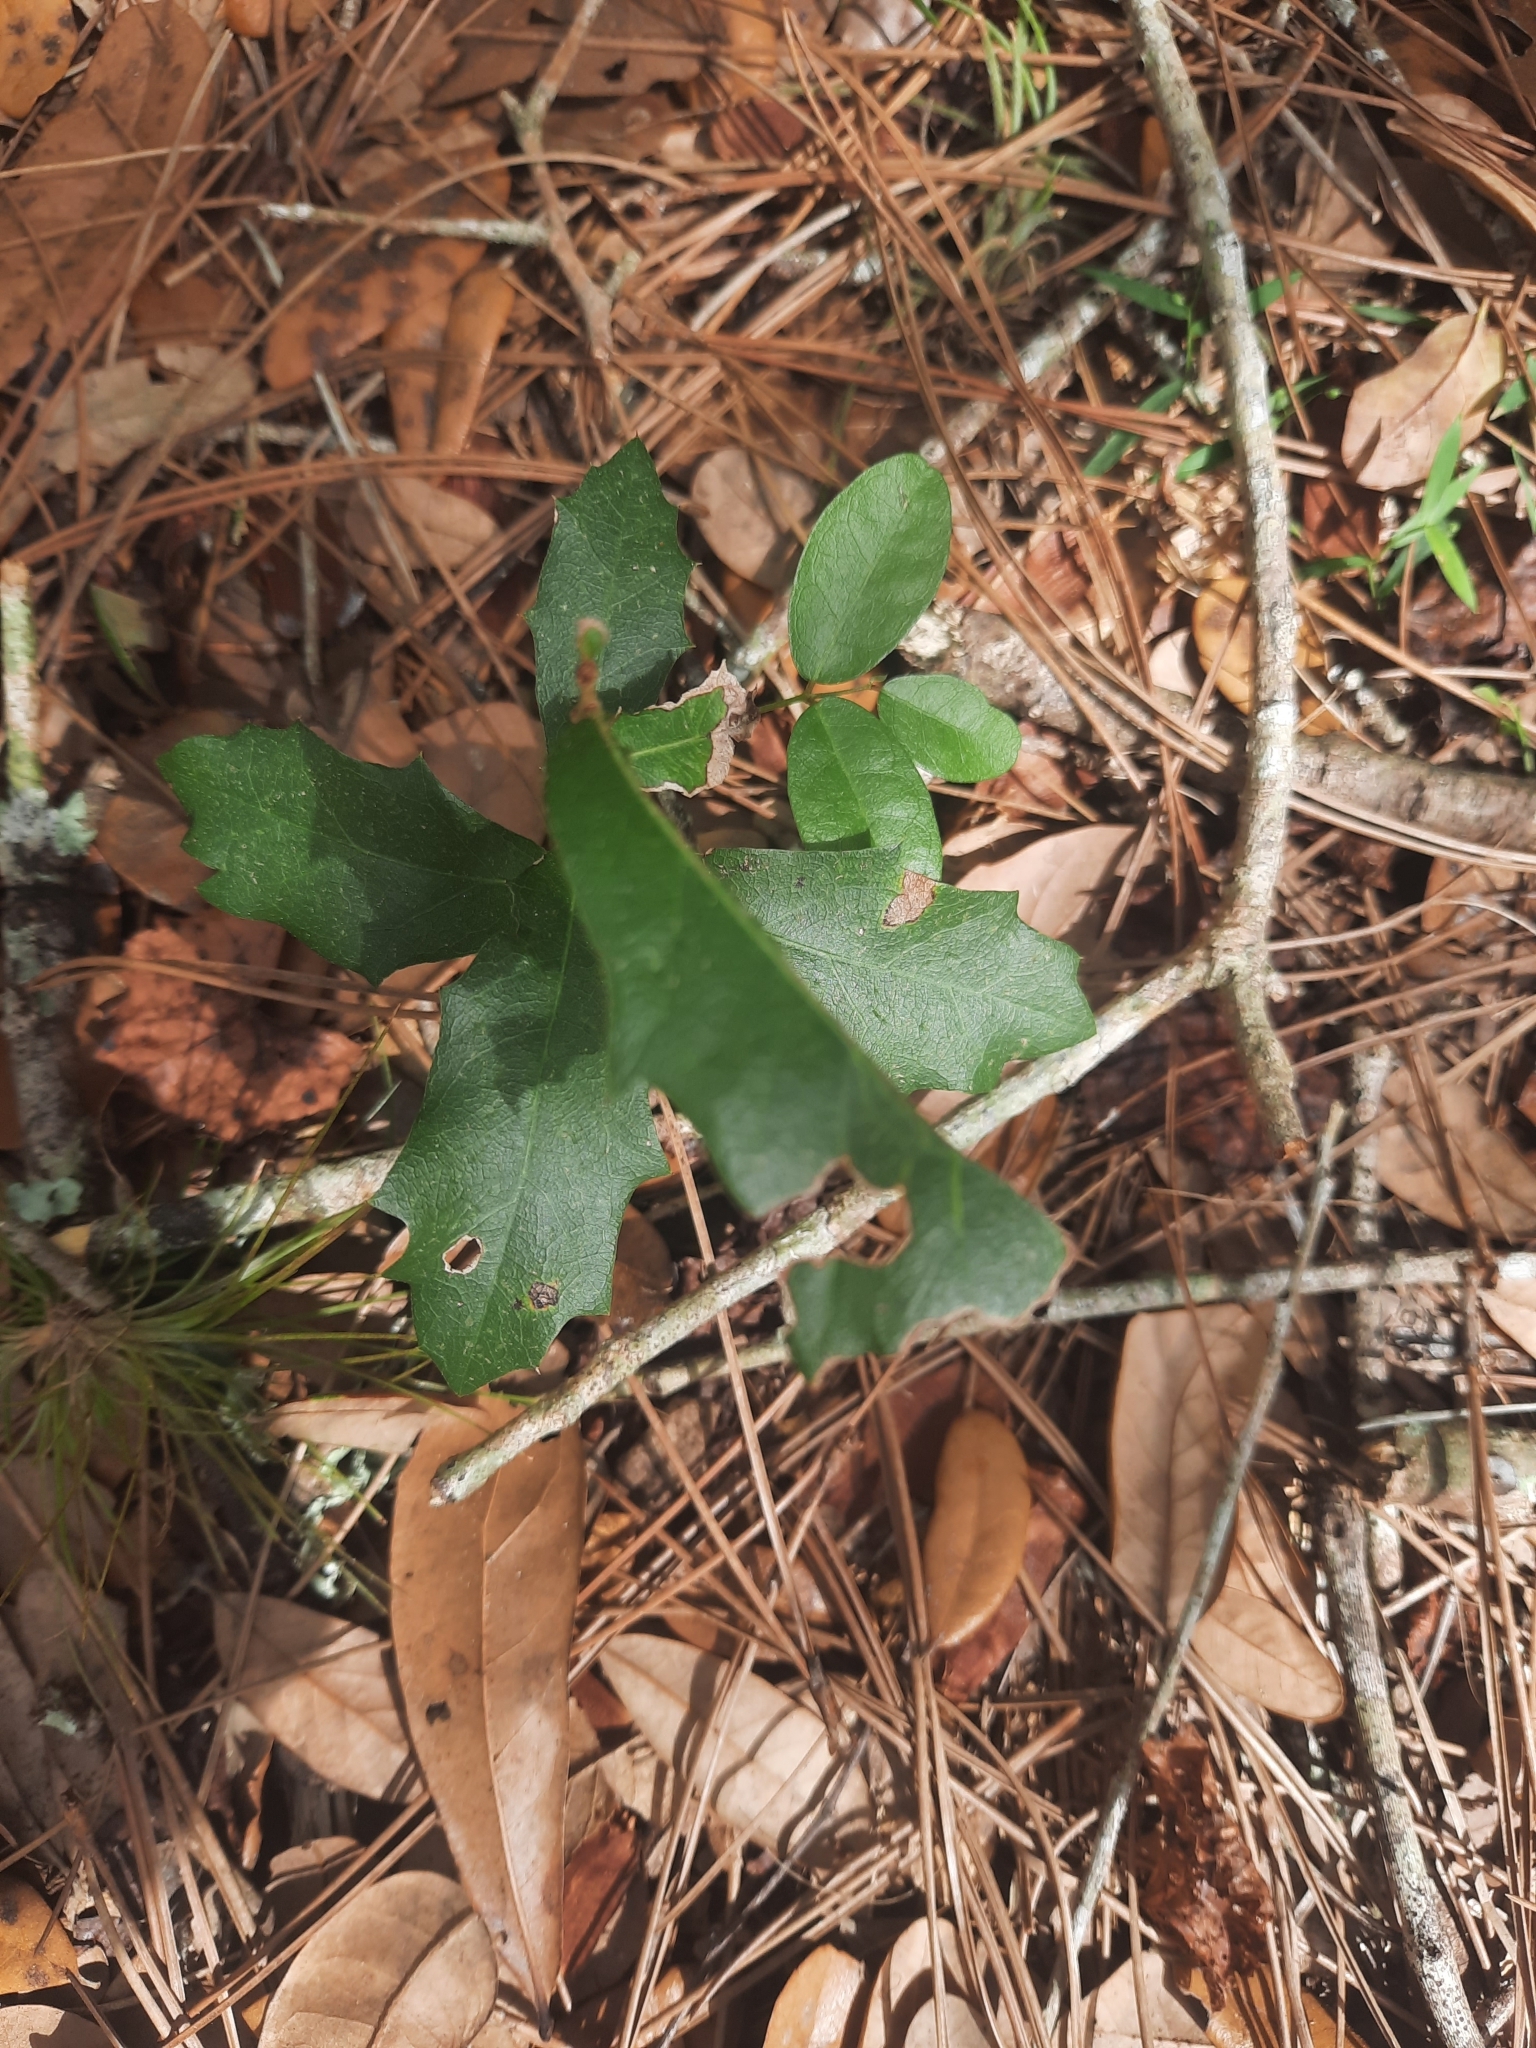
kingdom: Plantae
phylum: Tracheophyta
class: Magnoliopsida
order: Fagales
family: Fagaceae
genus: Quercus
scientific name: Quercus virginiana
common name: Southern live oak
